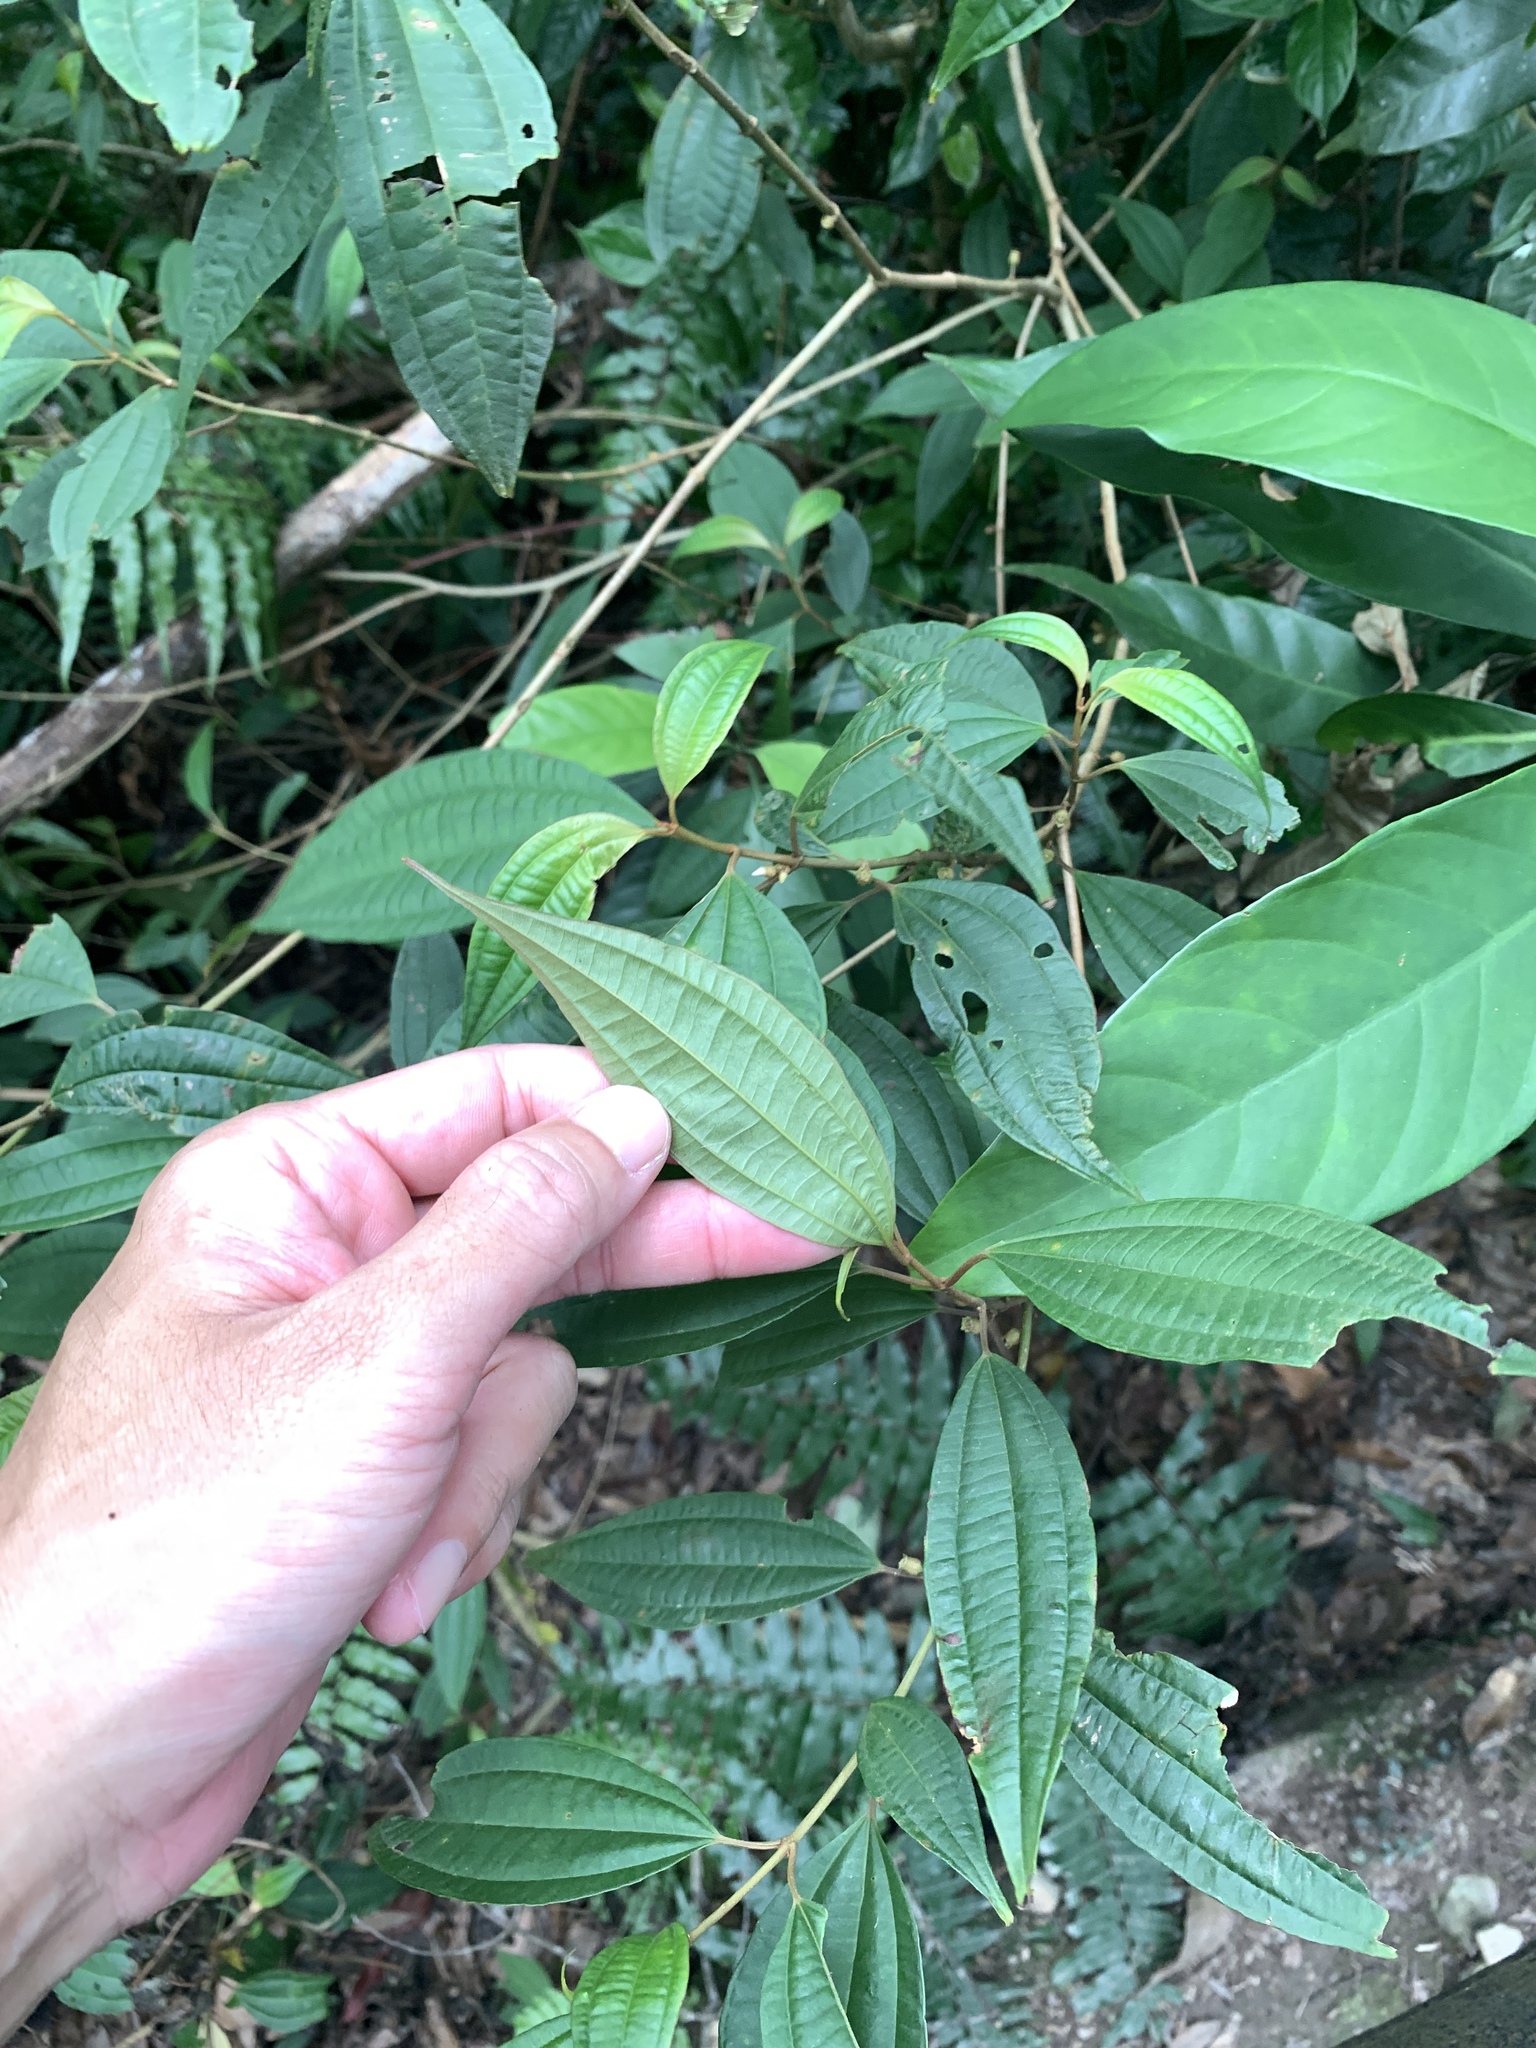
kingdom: Plantae
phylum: Tracheophyta
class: Magnoliopsida
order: Myrtales
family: Melastomataceae
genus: Blastus
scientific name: Blastus cochinchinensis
